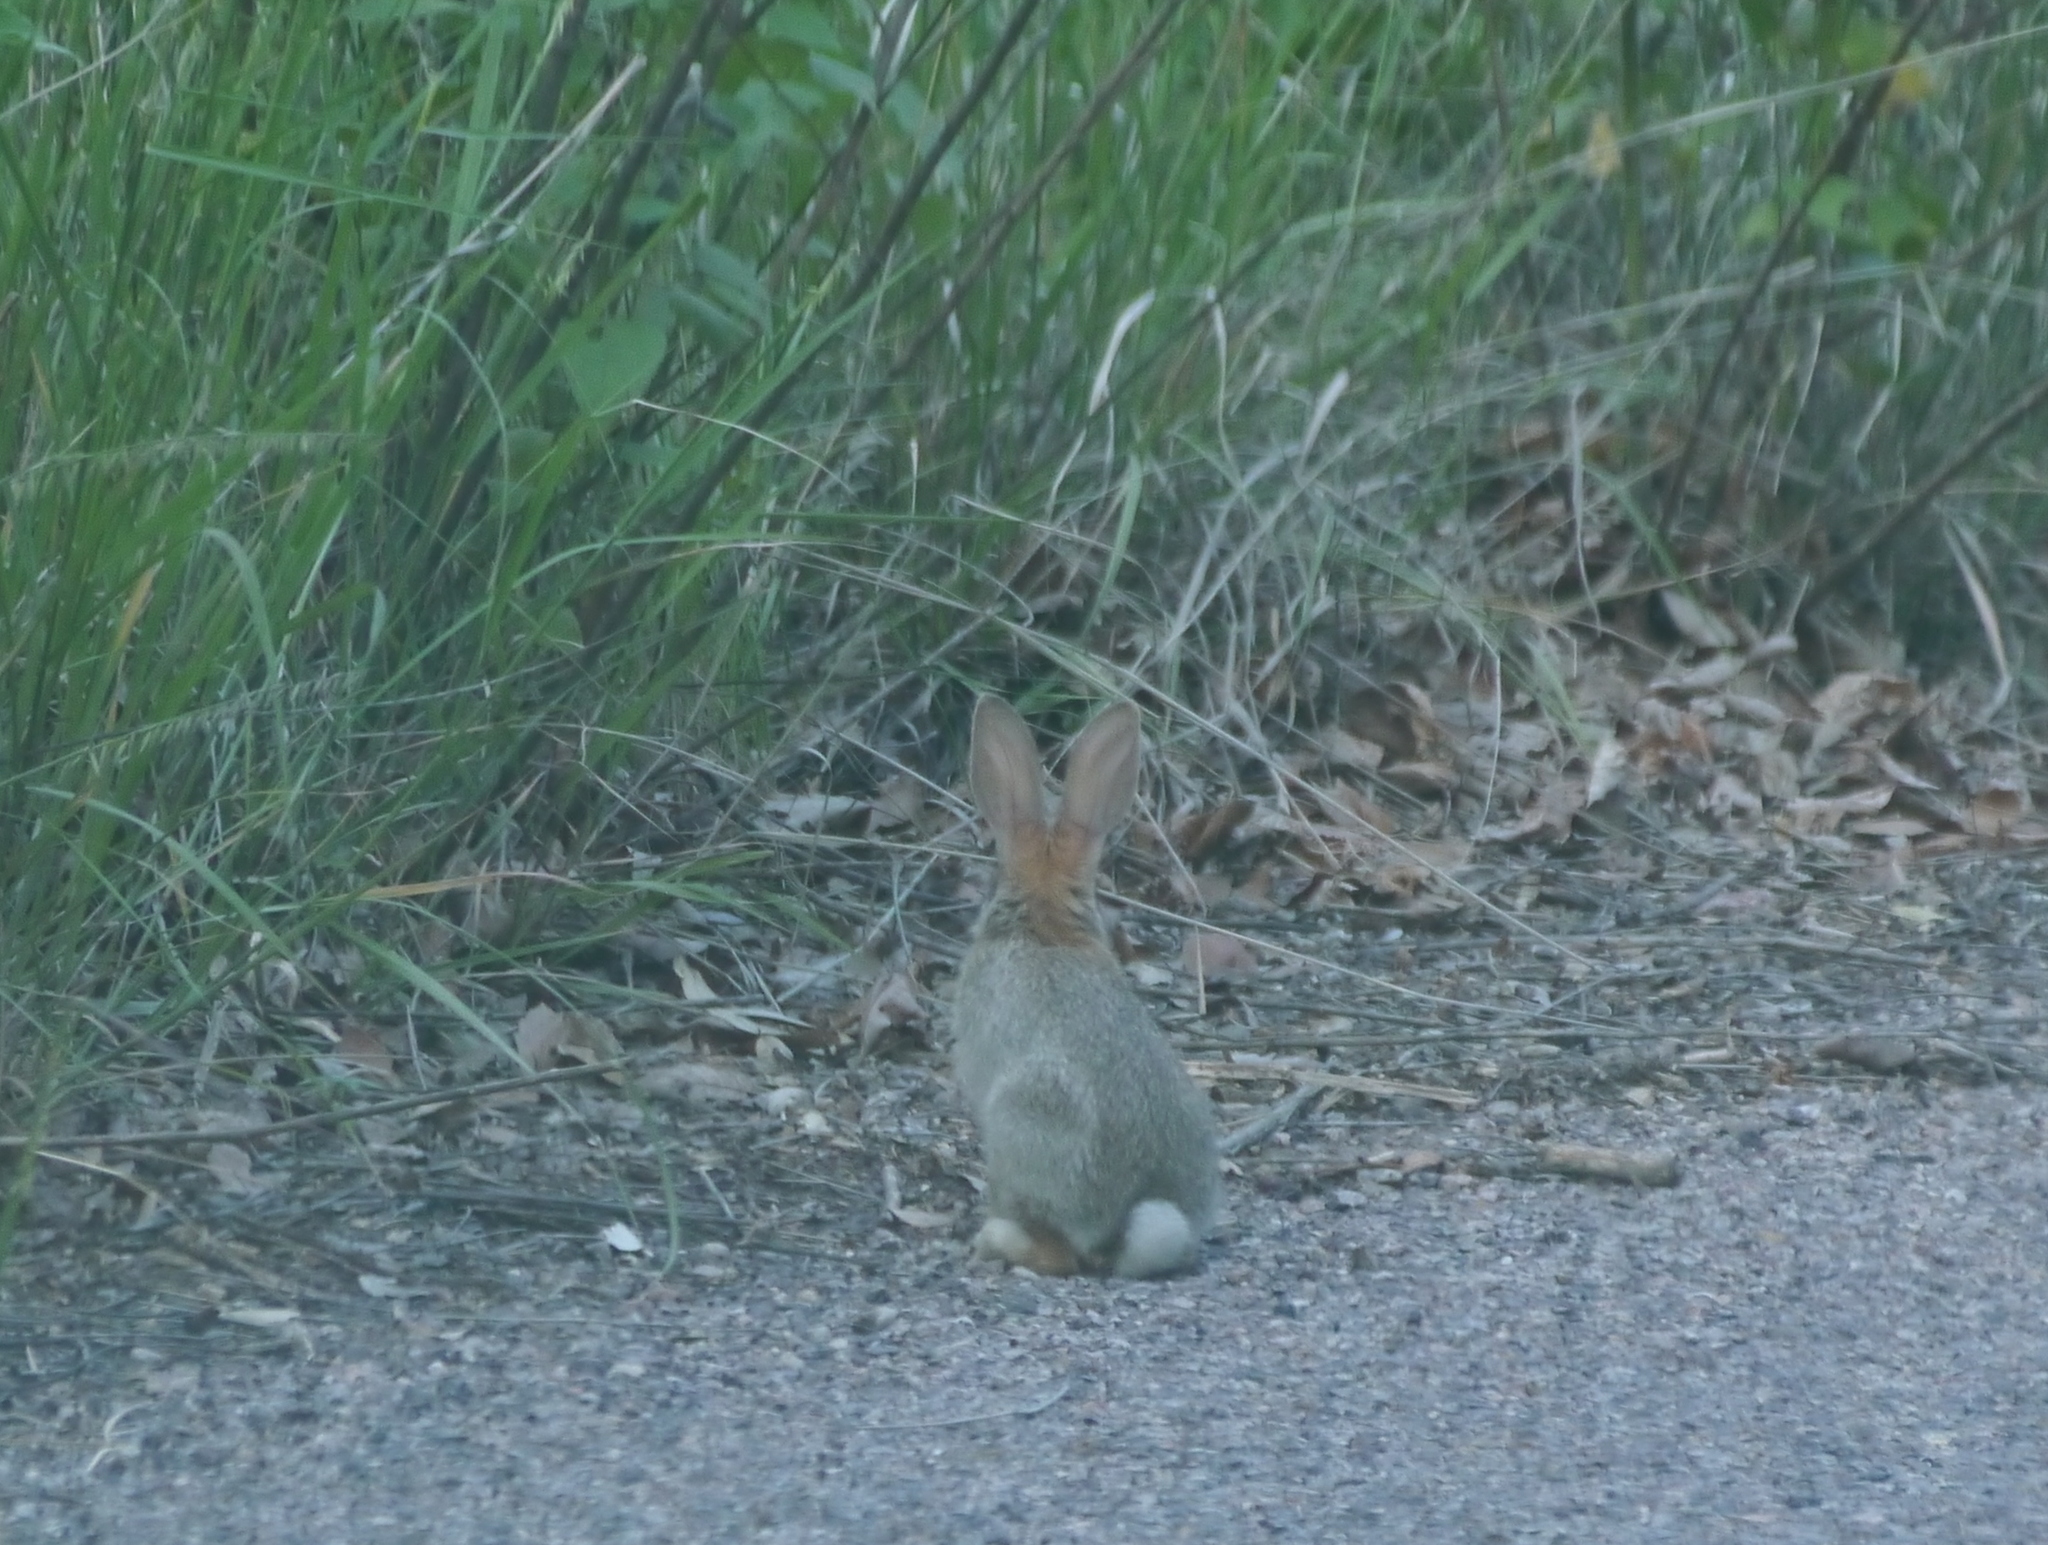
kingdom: Animalia
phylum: Chordata
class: Mammalia
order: Lagomorpha
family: Leporidae
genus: Sylvilagus
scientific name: Sylvilagus audubonii
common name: Desert cottontail
